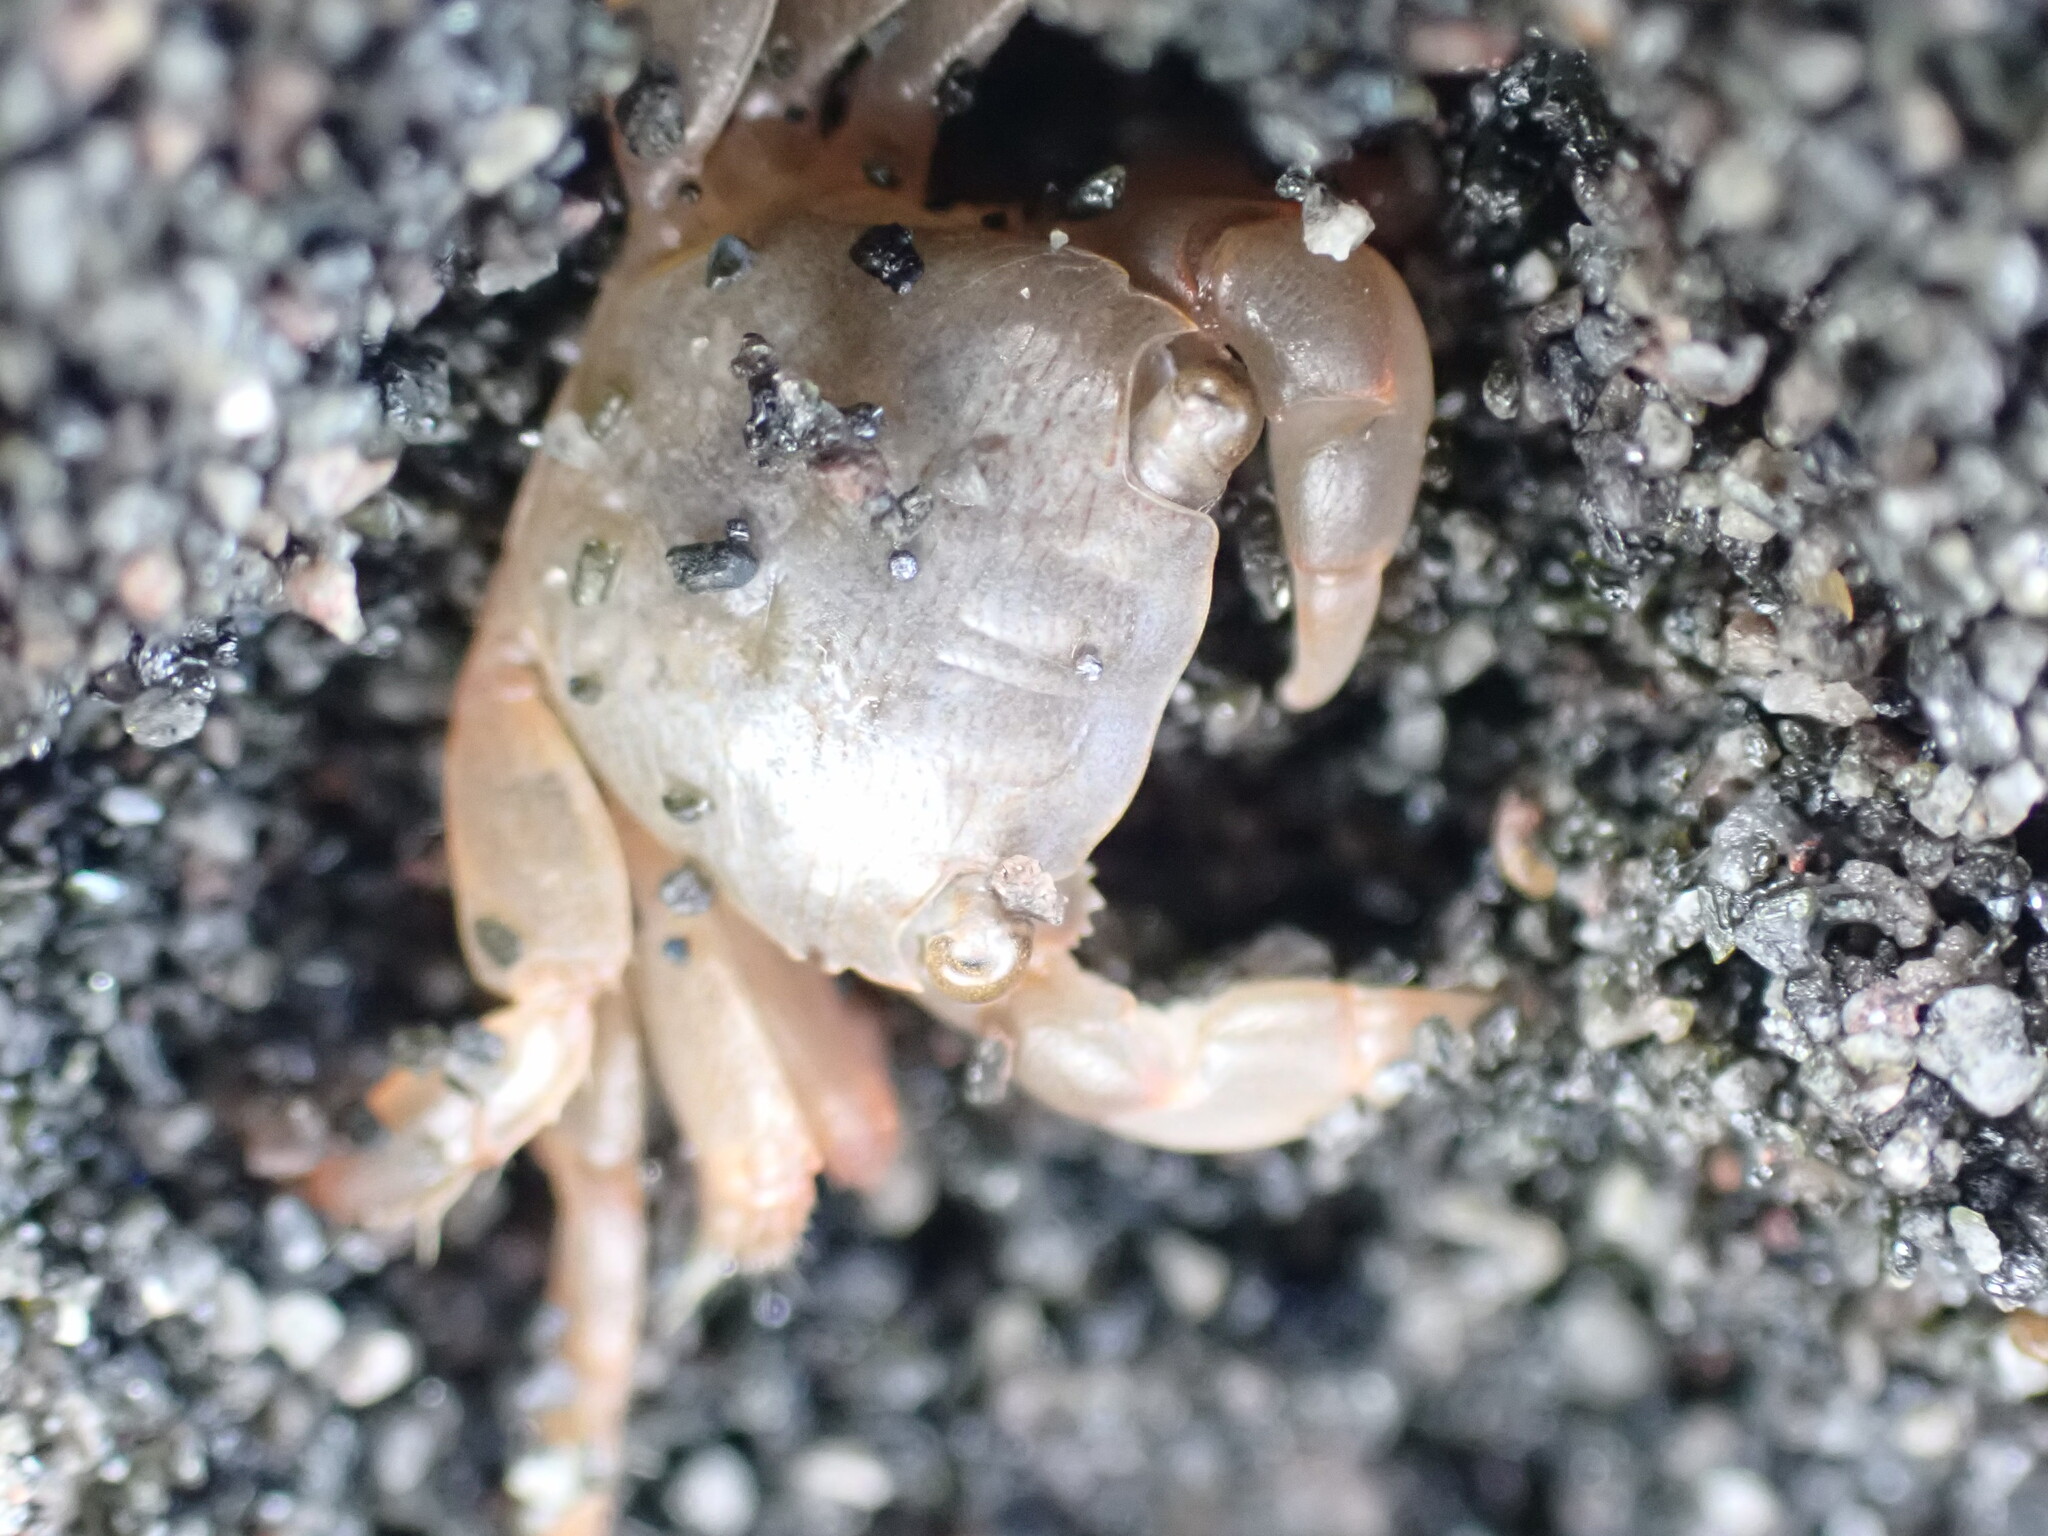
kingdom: Animalia
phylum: Arthropoda
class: Malacostraca
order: Decapoda
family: Grapsidae
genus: Planes
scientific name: Planes minutus
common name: Gulf weed crab
